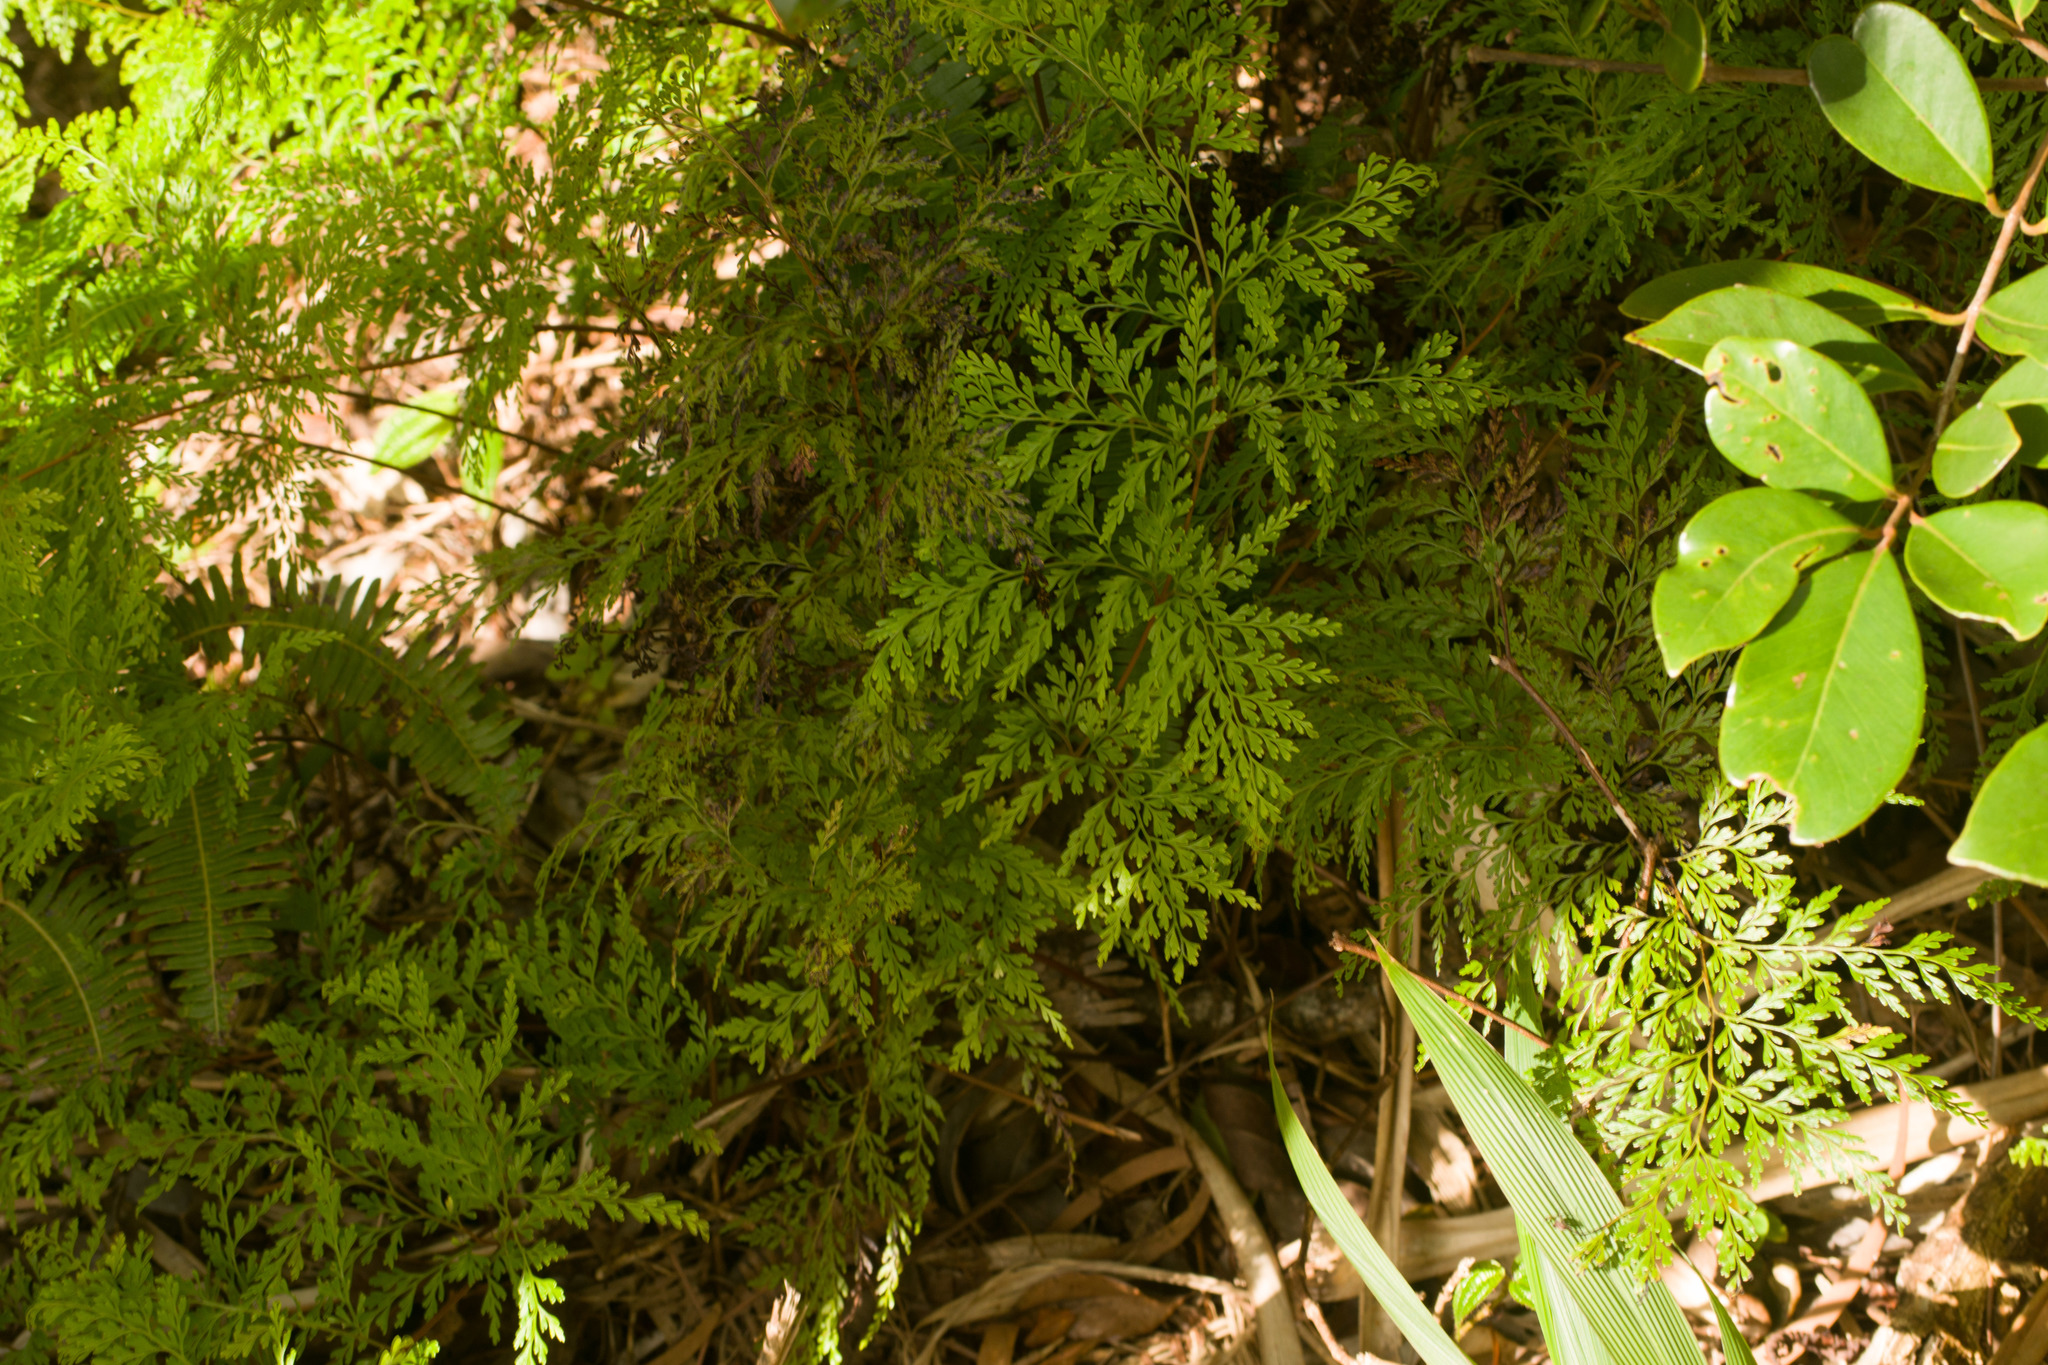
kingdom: Plantae
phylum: Tracheophyta
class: Polypodiopsida
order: Polypodiales
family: Lindsaeaceae
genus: Odontosoria
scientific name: Odontosoria chinensis
